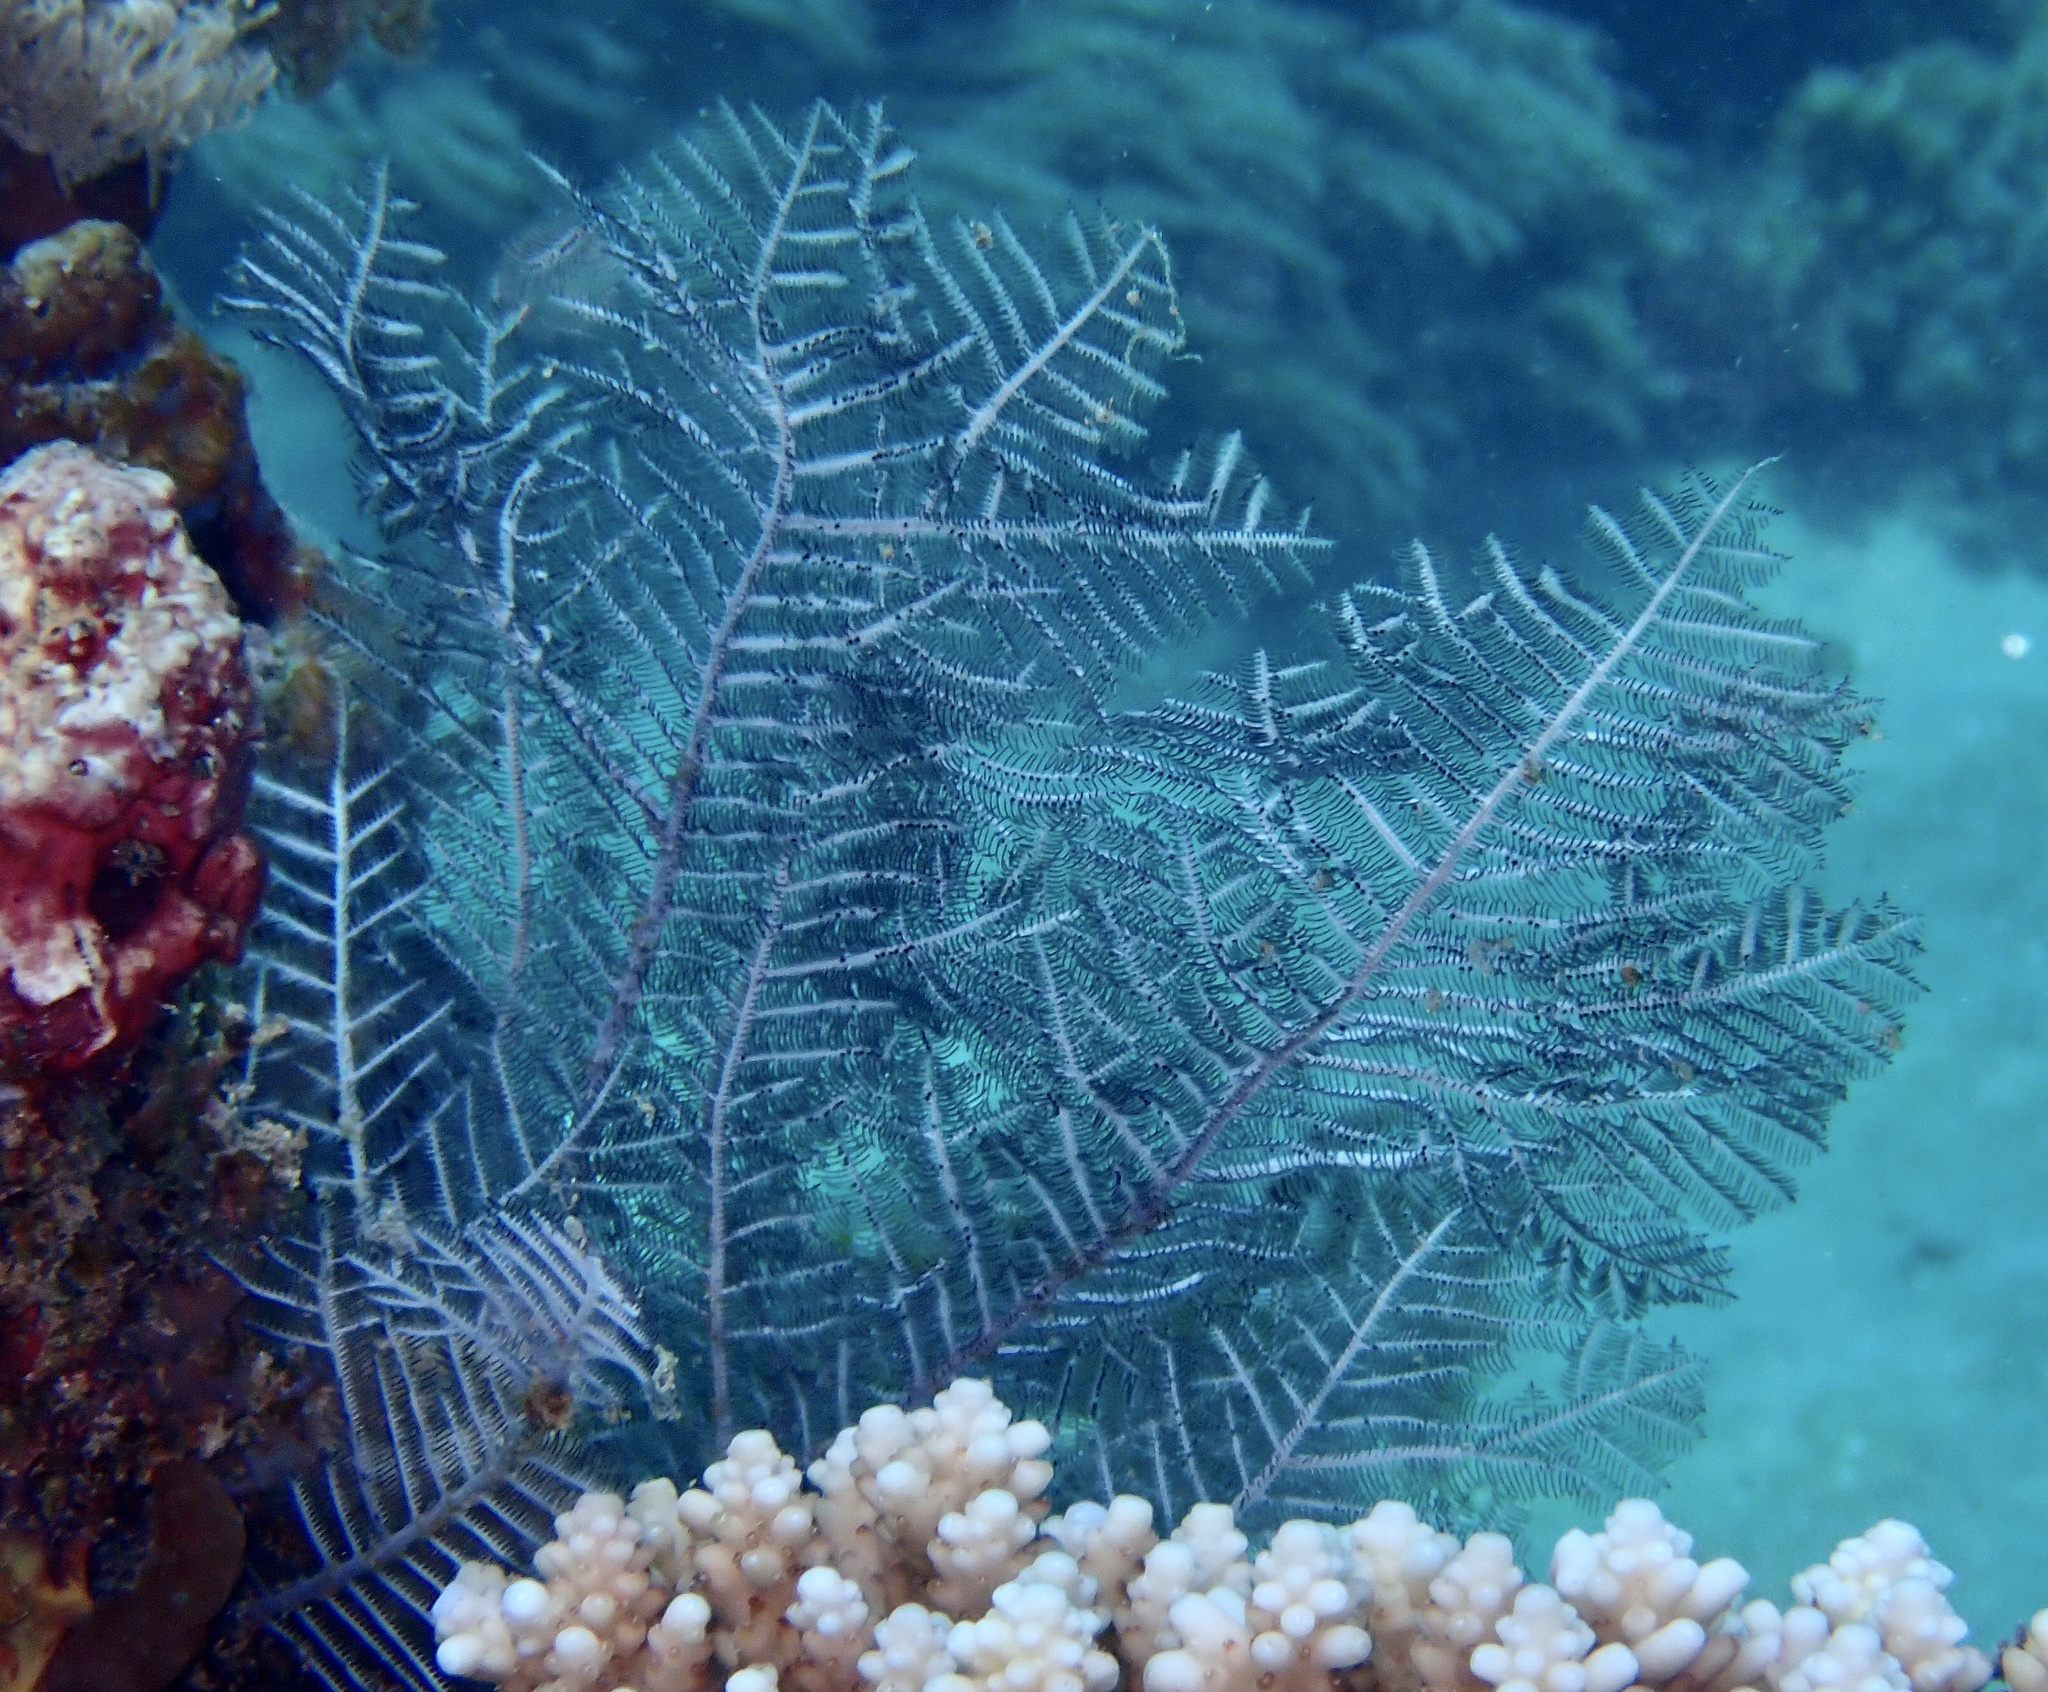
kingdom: Animalia
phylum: Cnidaria
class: Hydrozoa
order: Leptothecata
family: Aglaopheniidae
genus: Macrorhynchia
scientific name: Macrorhynchia phoenicea
